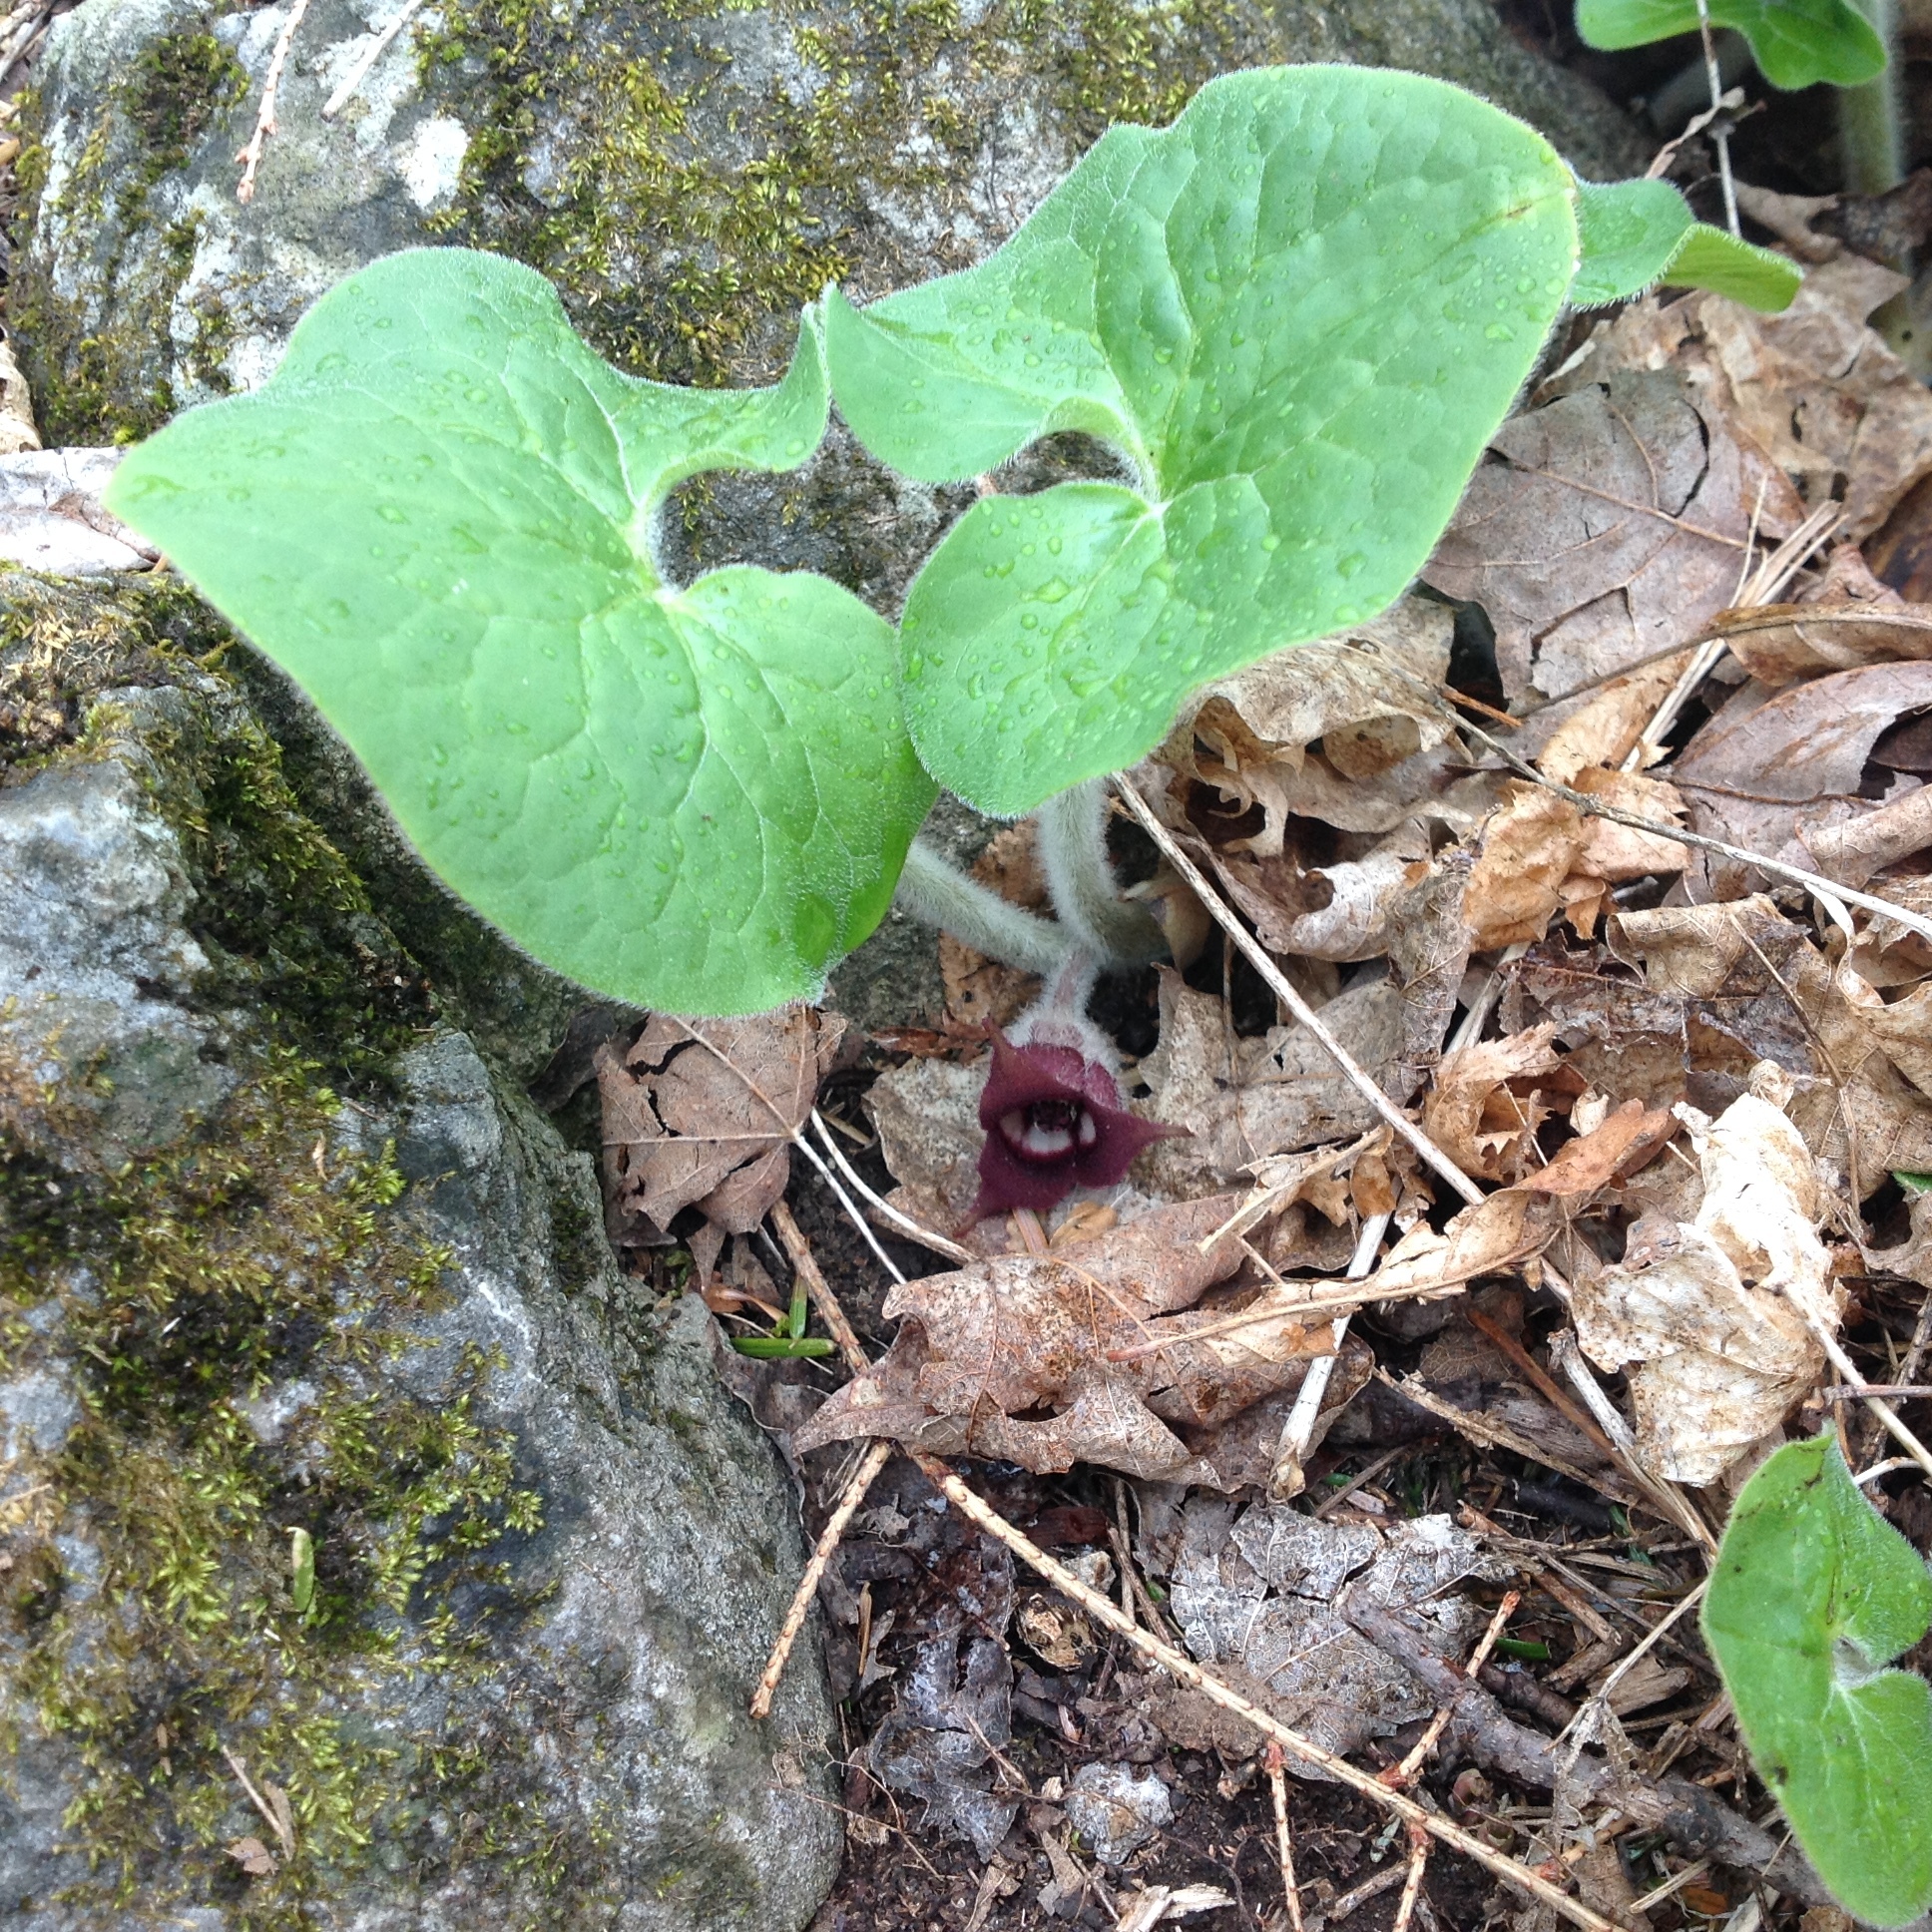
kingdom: Plantae
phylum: Tracheophyta
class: Magnoliopsida
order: Piperales
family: Aristolochiaceae
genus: Asarum
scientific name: Asarum canadense
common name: Wild ginger
